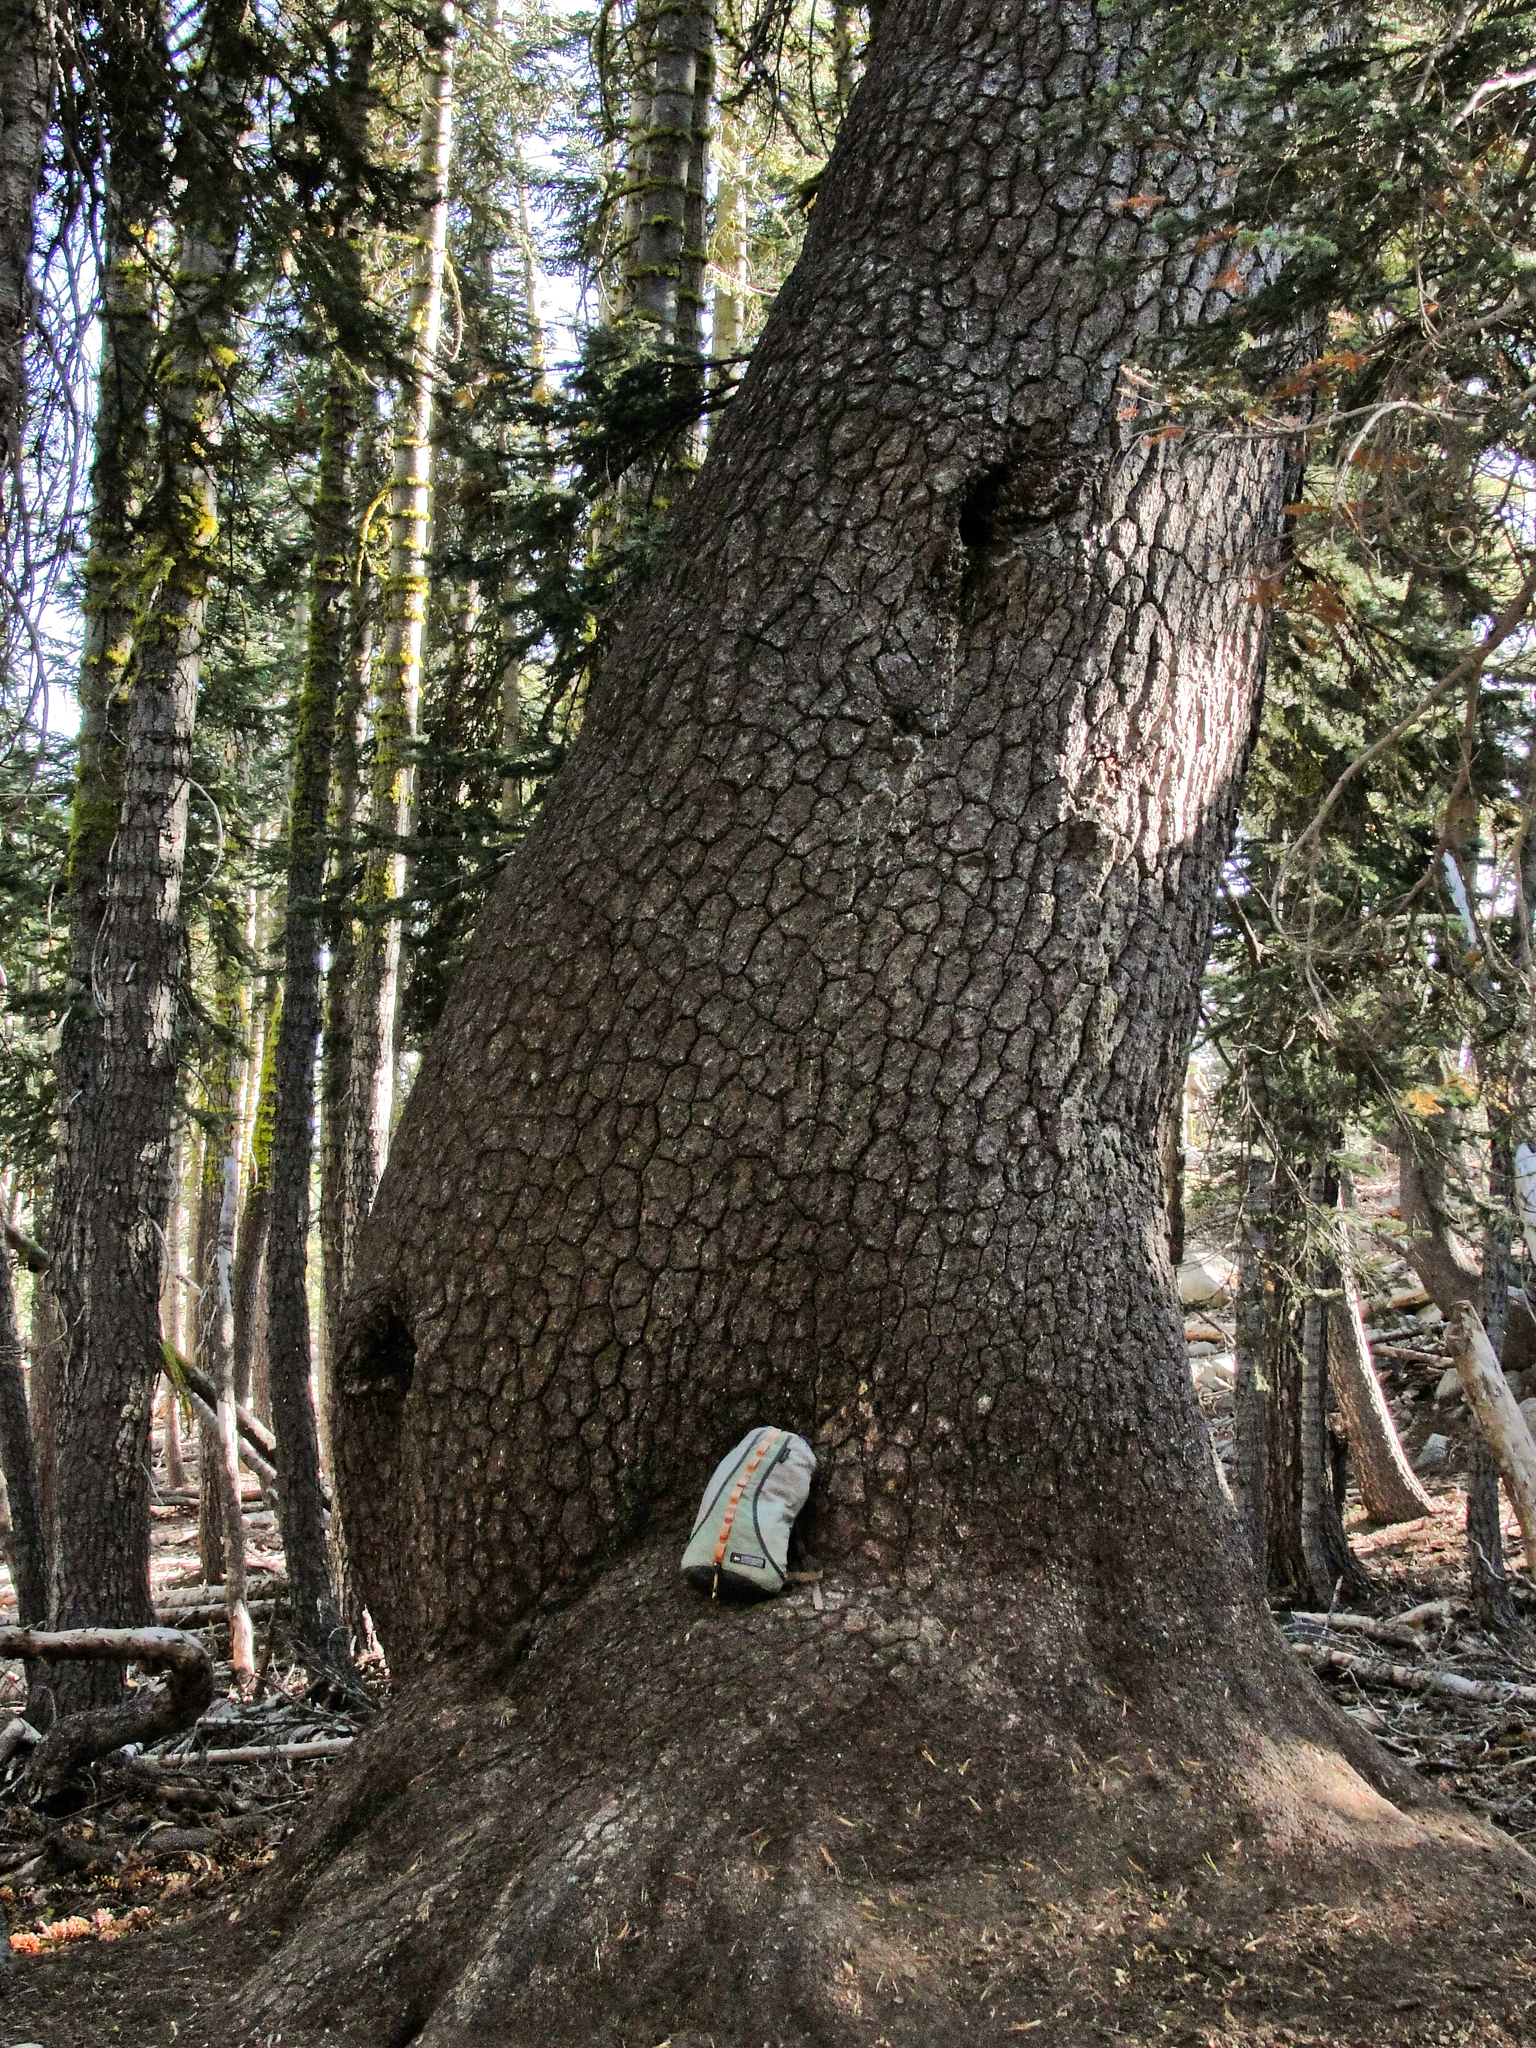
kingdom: Plantae
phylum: Tracheophyta
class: Pinopsida
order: Pinales
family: Pinaceae
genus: Pinus
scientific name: Pinus monticola
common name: Western white pine
